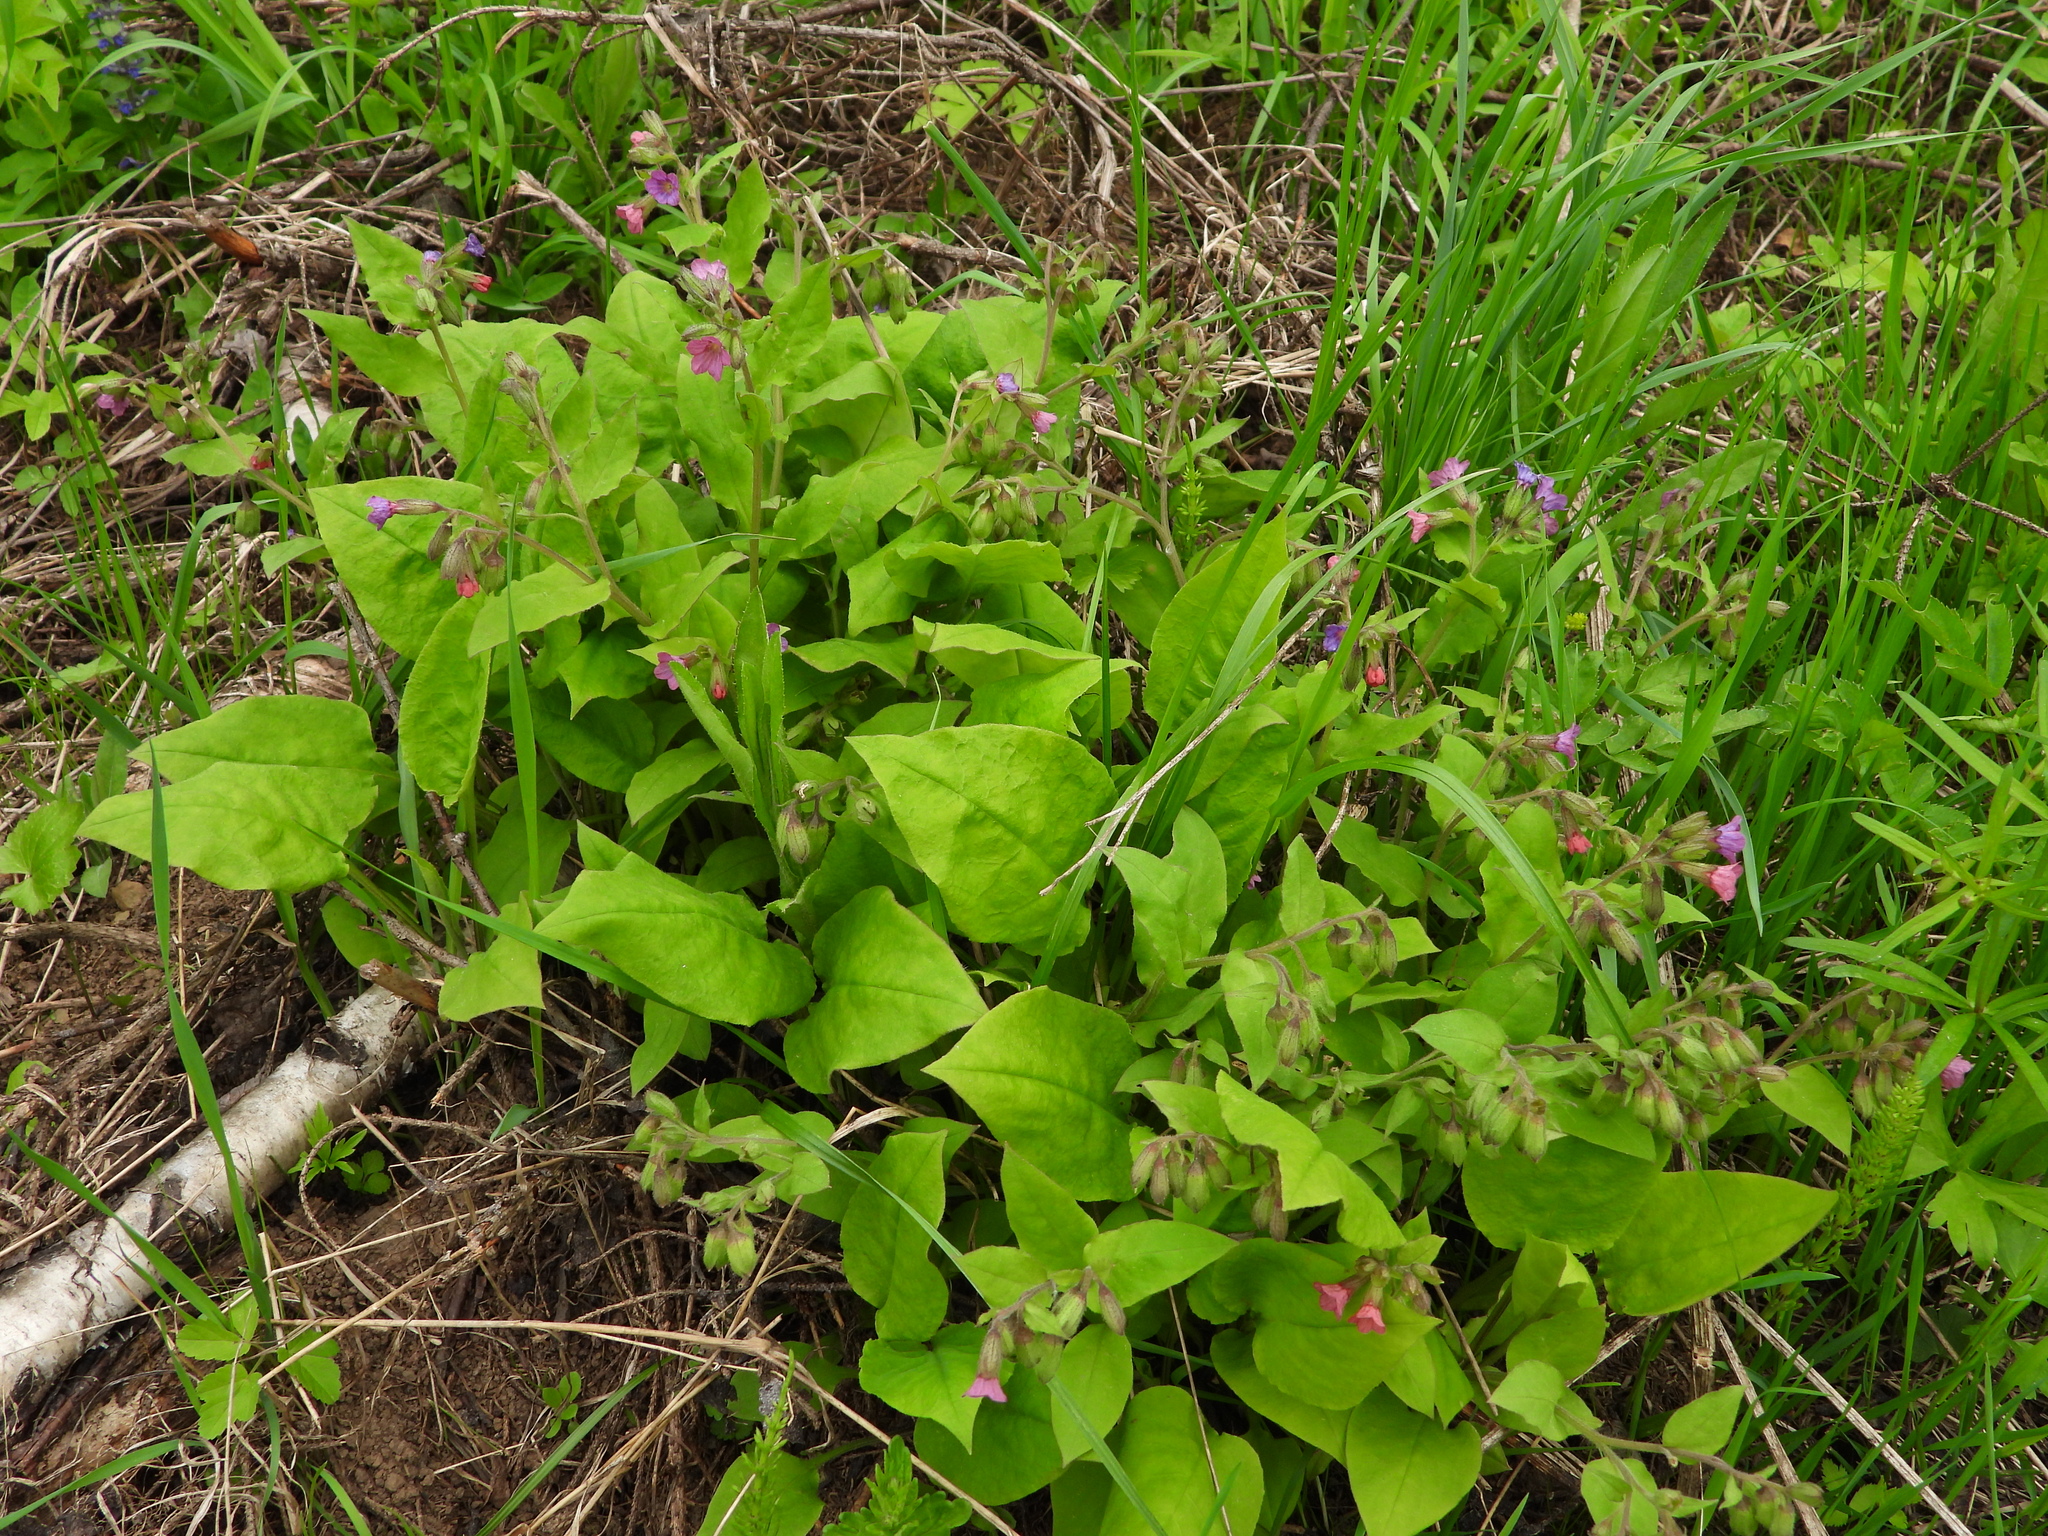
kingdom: Plantae
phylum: Tracheophyta
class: Magnoliopsida
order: Boraginales
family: Boraginaceae
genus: Pulmonaria
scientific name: Pulmonaria obscura
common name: Suffolk lungwort
